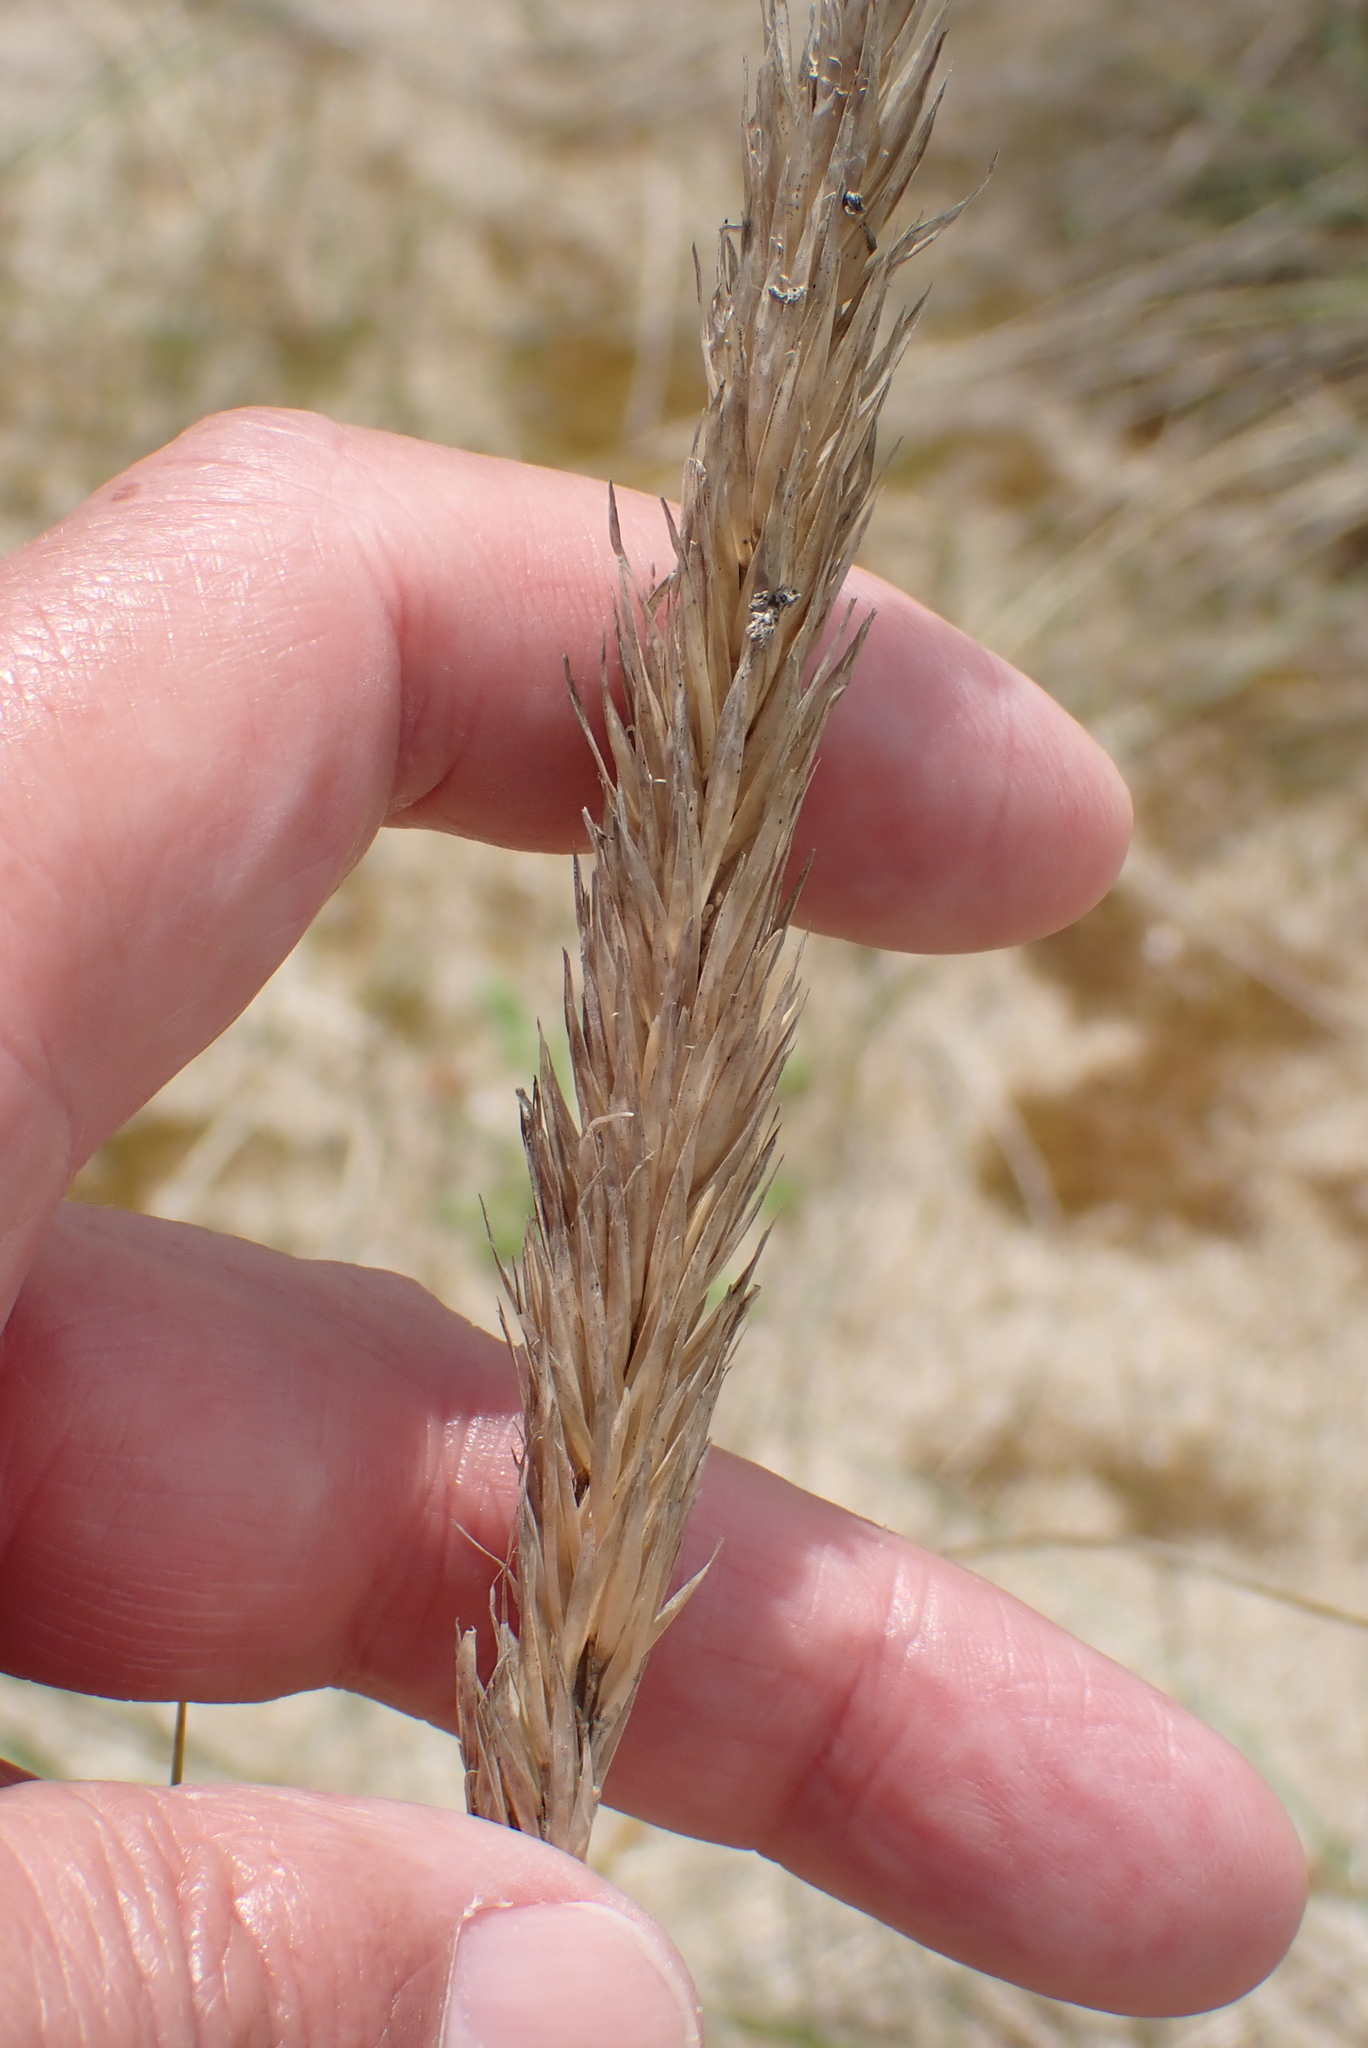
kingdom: Plantae
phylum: Tracheophyta
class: Liliopsida
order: Poales
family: Poaceae
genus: Calamagrostis
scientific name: Calamagrostis arenaria
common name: European beachgrass
